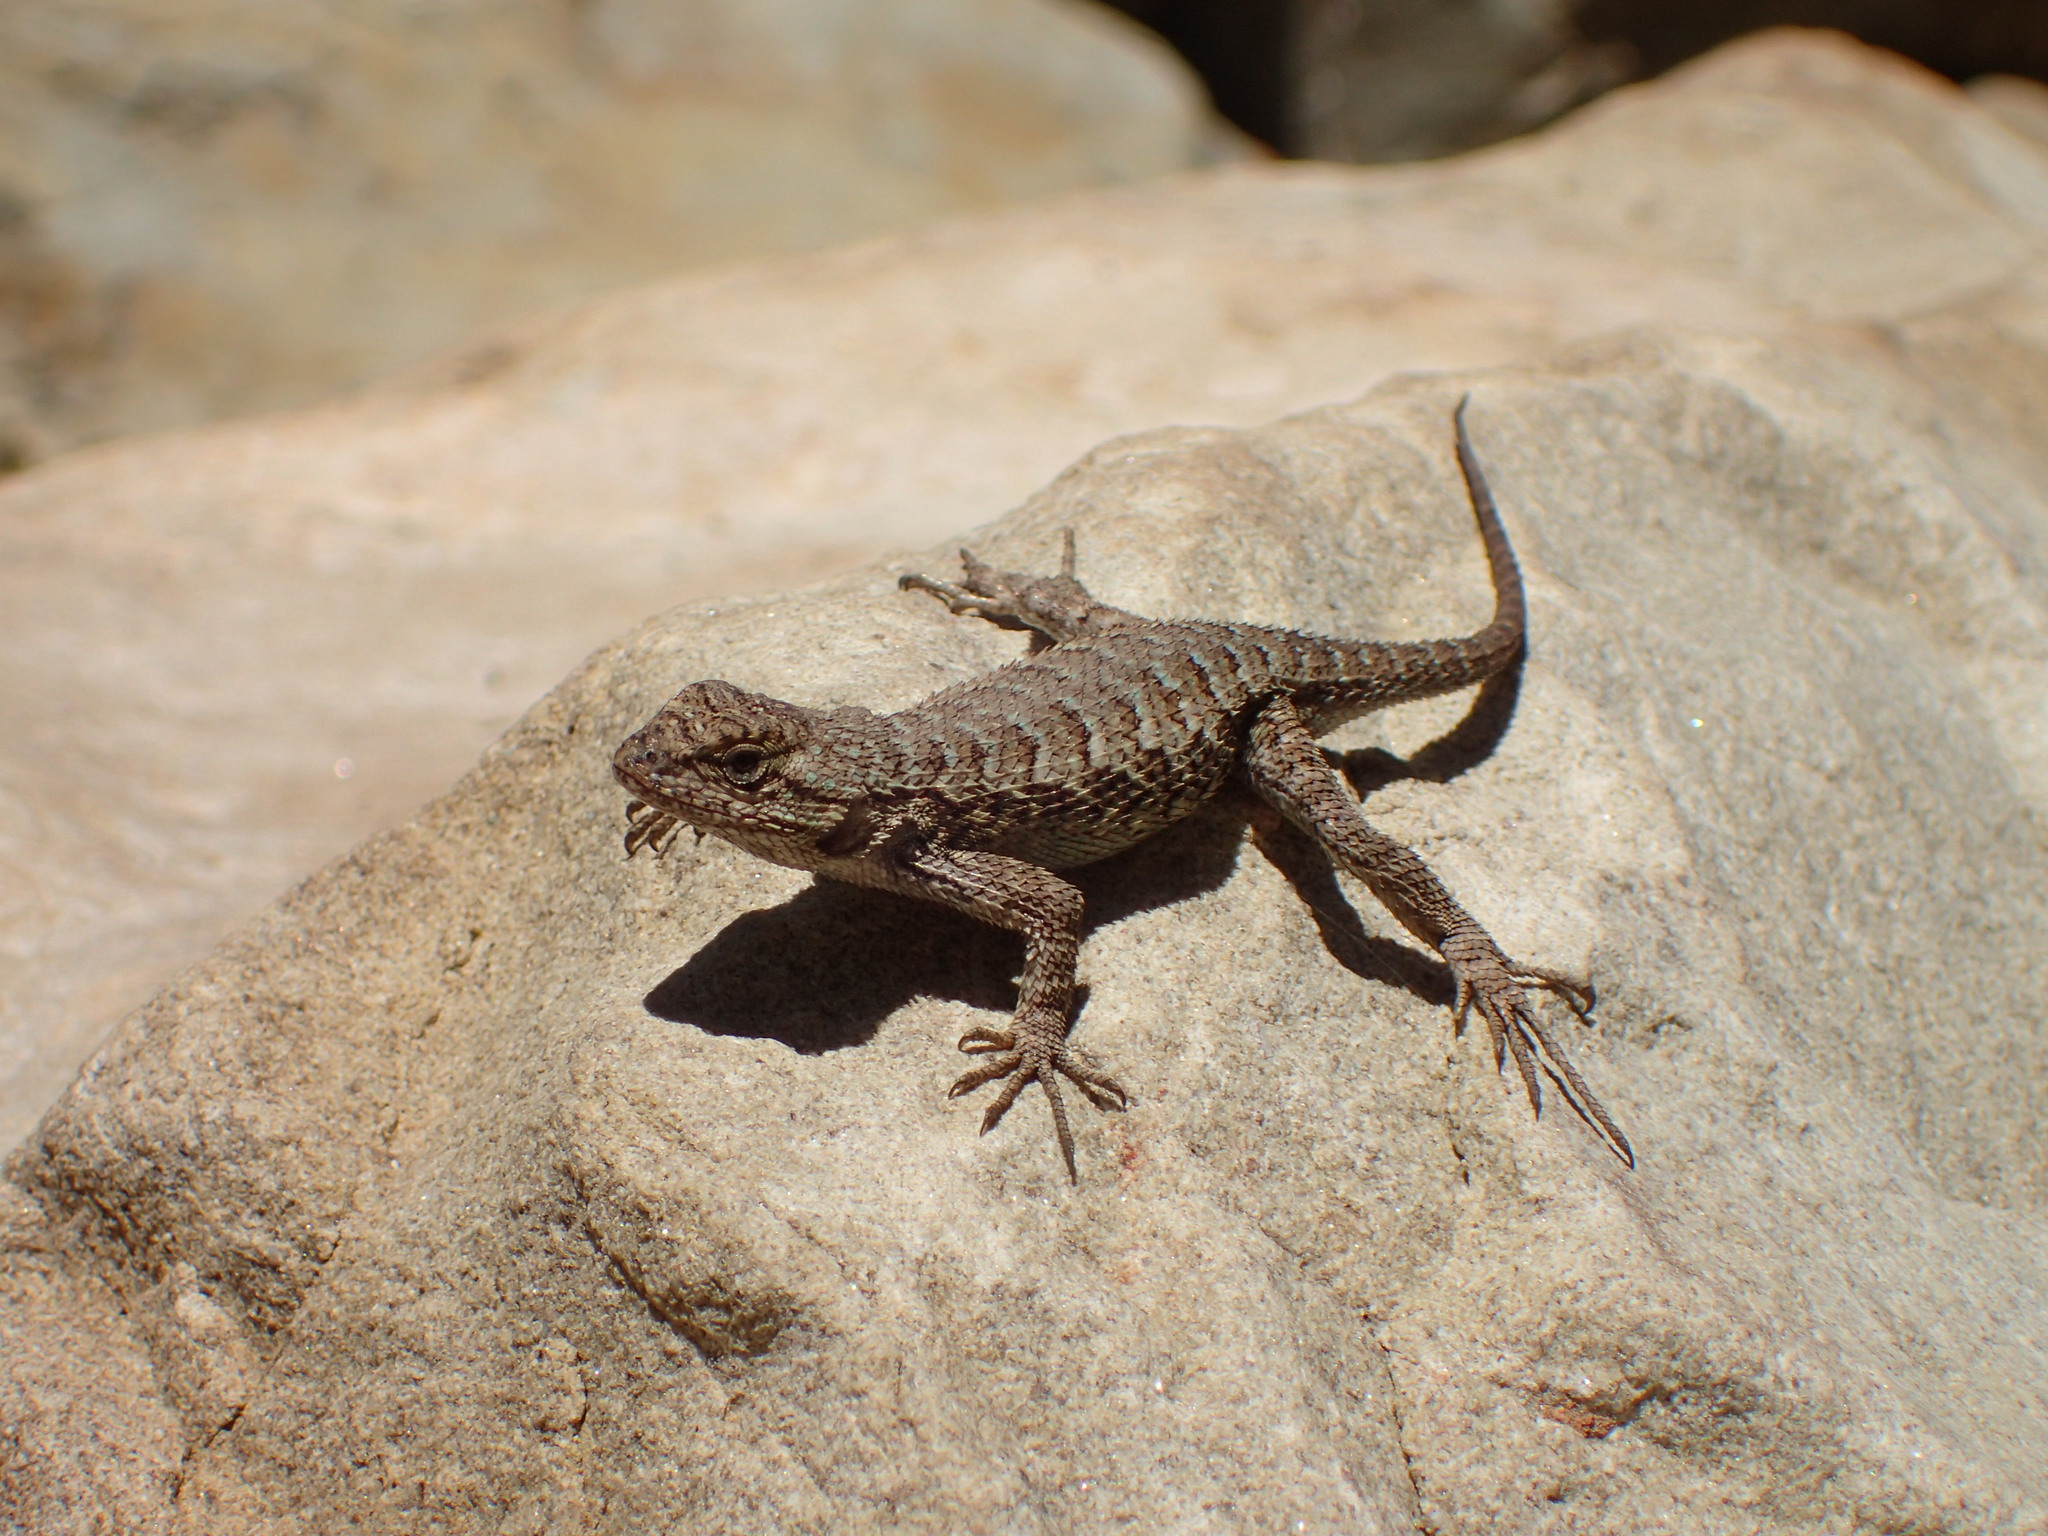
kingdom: Animalia
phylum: Chordata
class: Squamata
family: Phrynosomatidae
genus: Sceloporus
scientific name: Sceloporus occidentalis
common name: Western fence lizard
